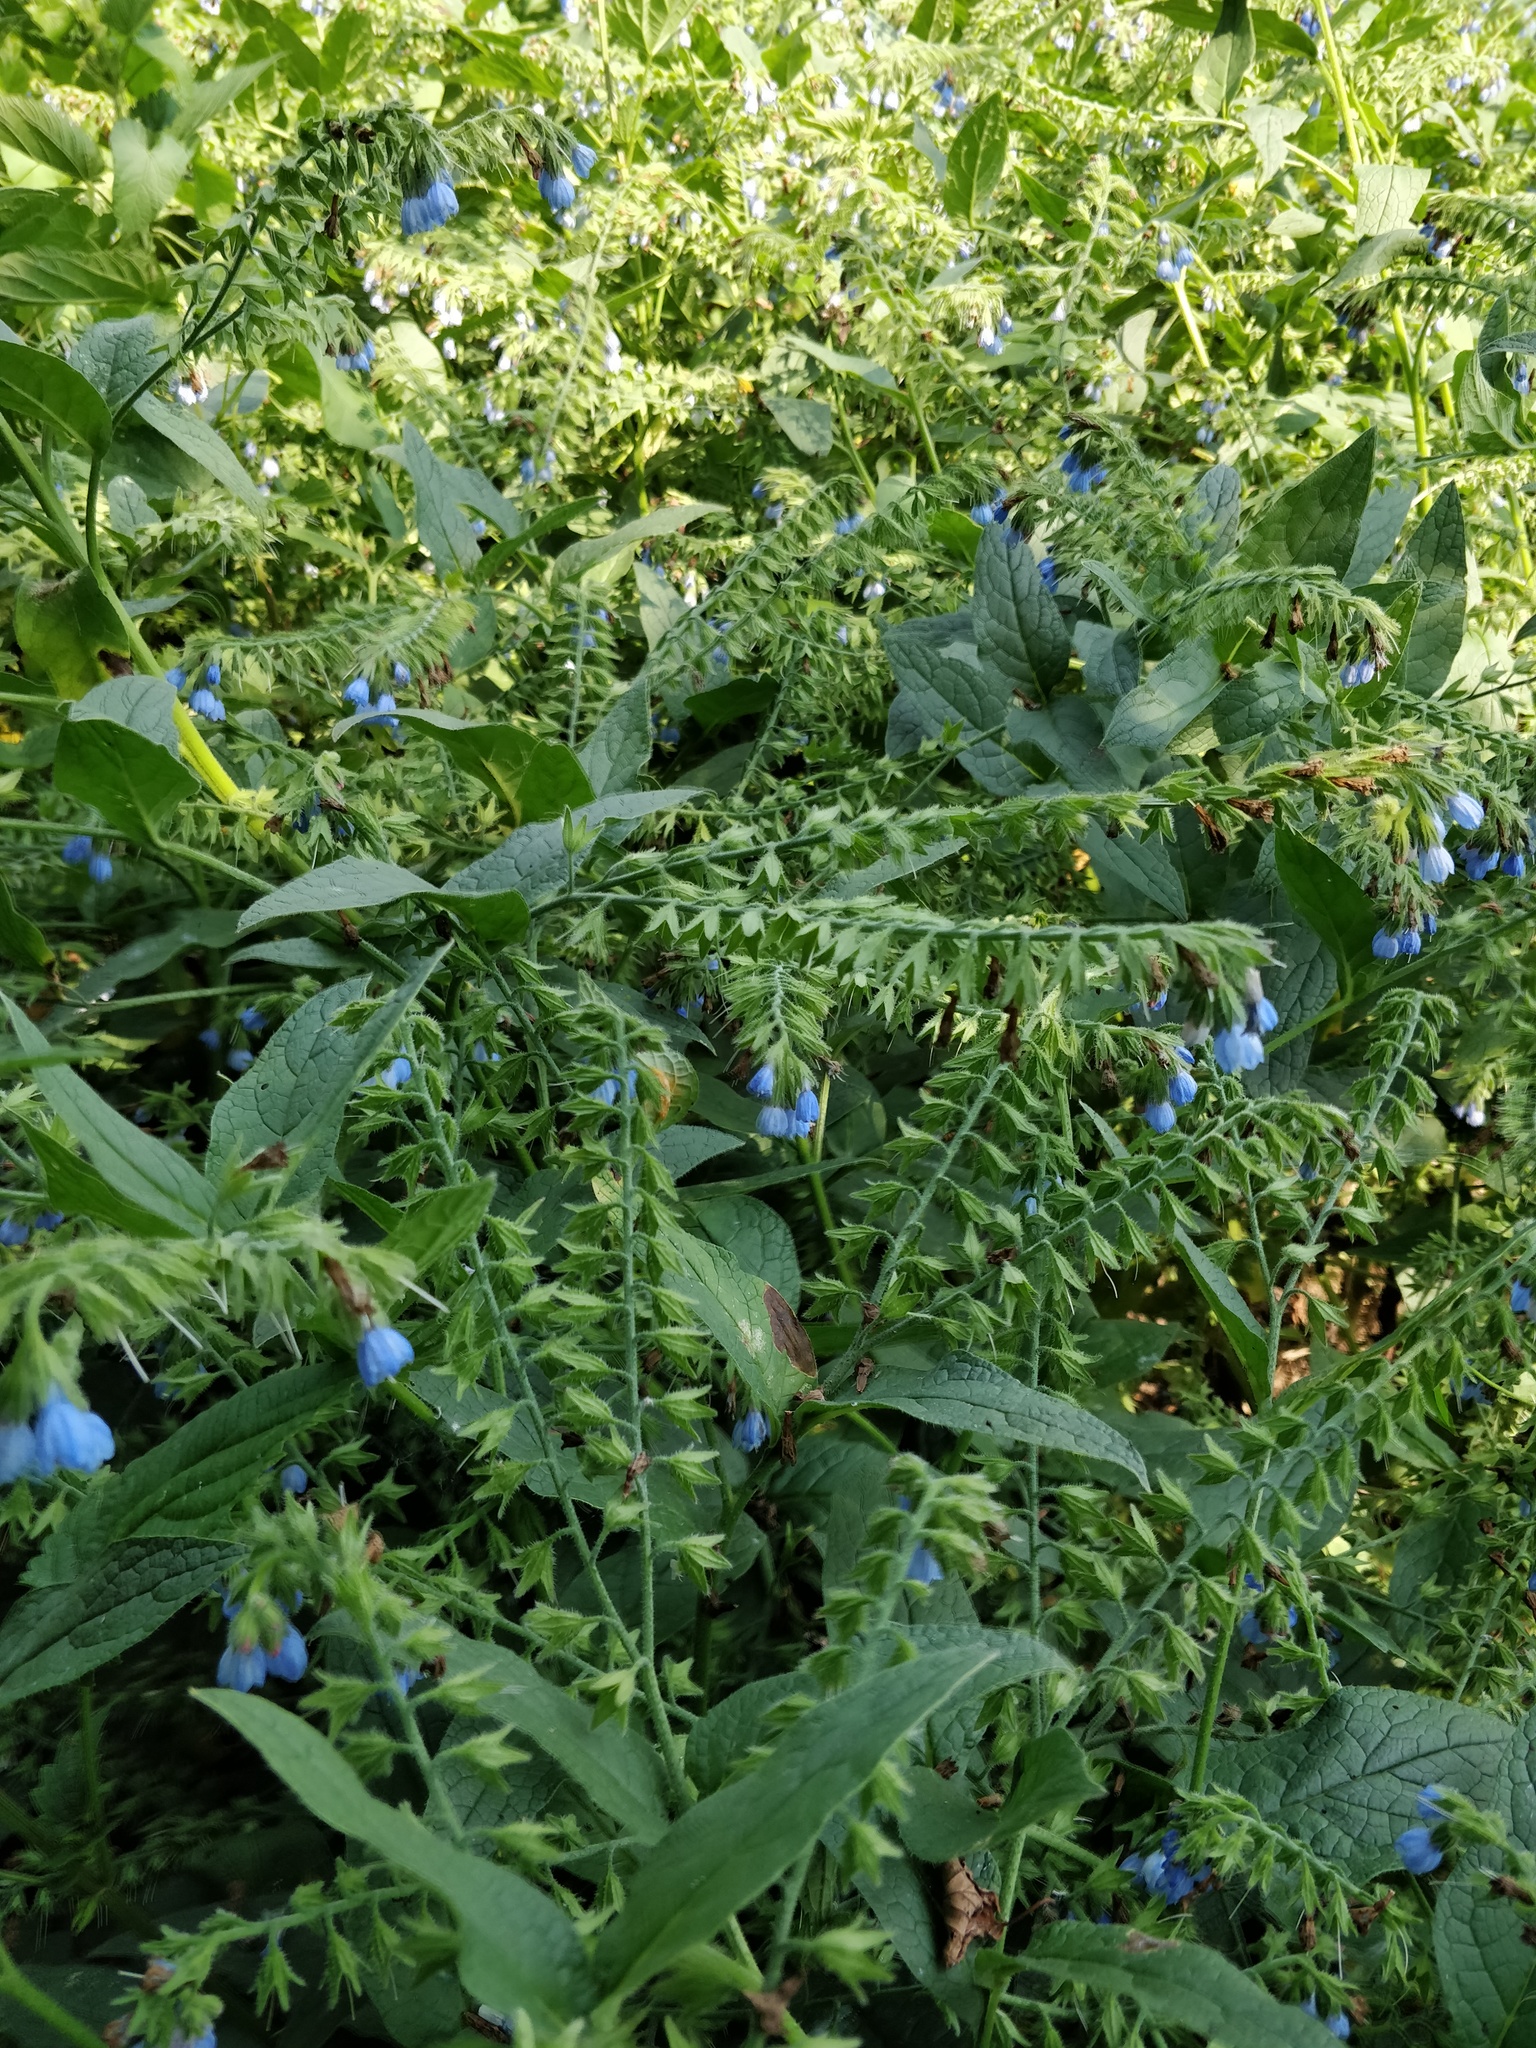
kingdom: Plantae
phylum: Tracheophyta
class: Magnoliopsida
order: Boraginales
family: Boraginaceae
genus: Symphytum
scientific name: Symphytum caucasicum
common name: Caucasian comfrey
